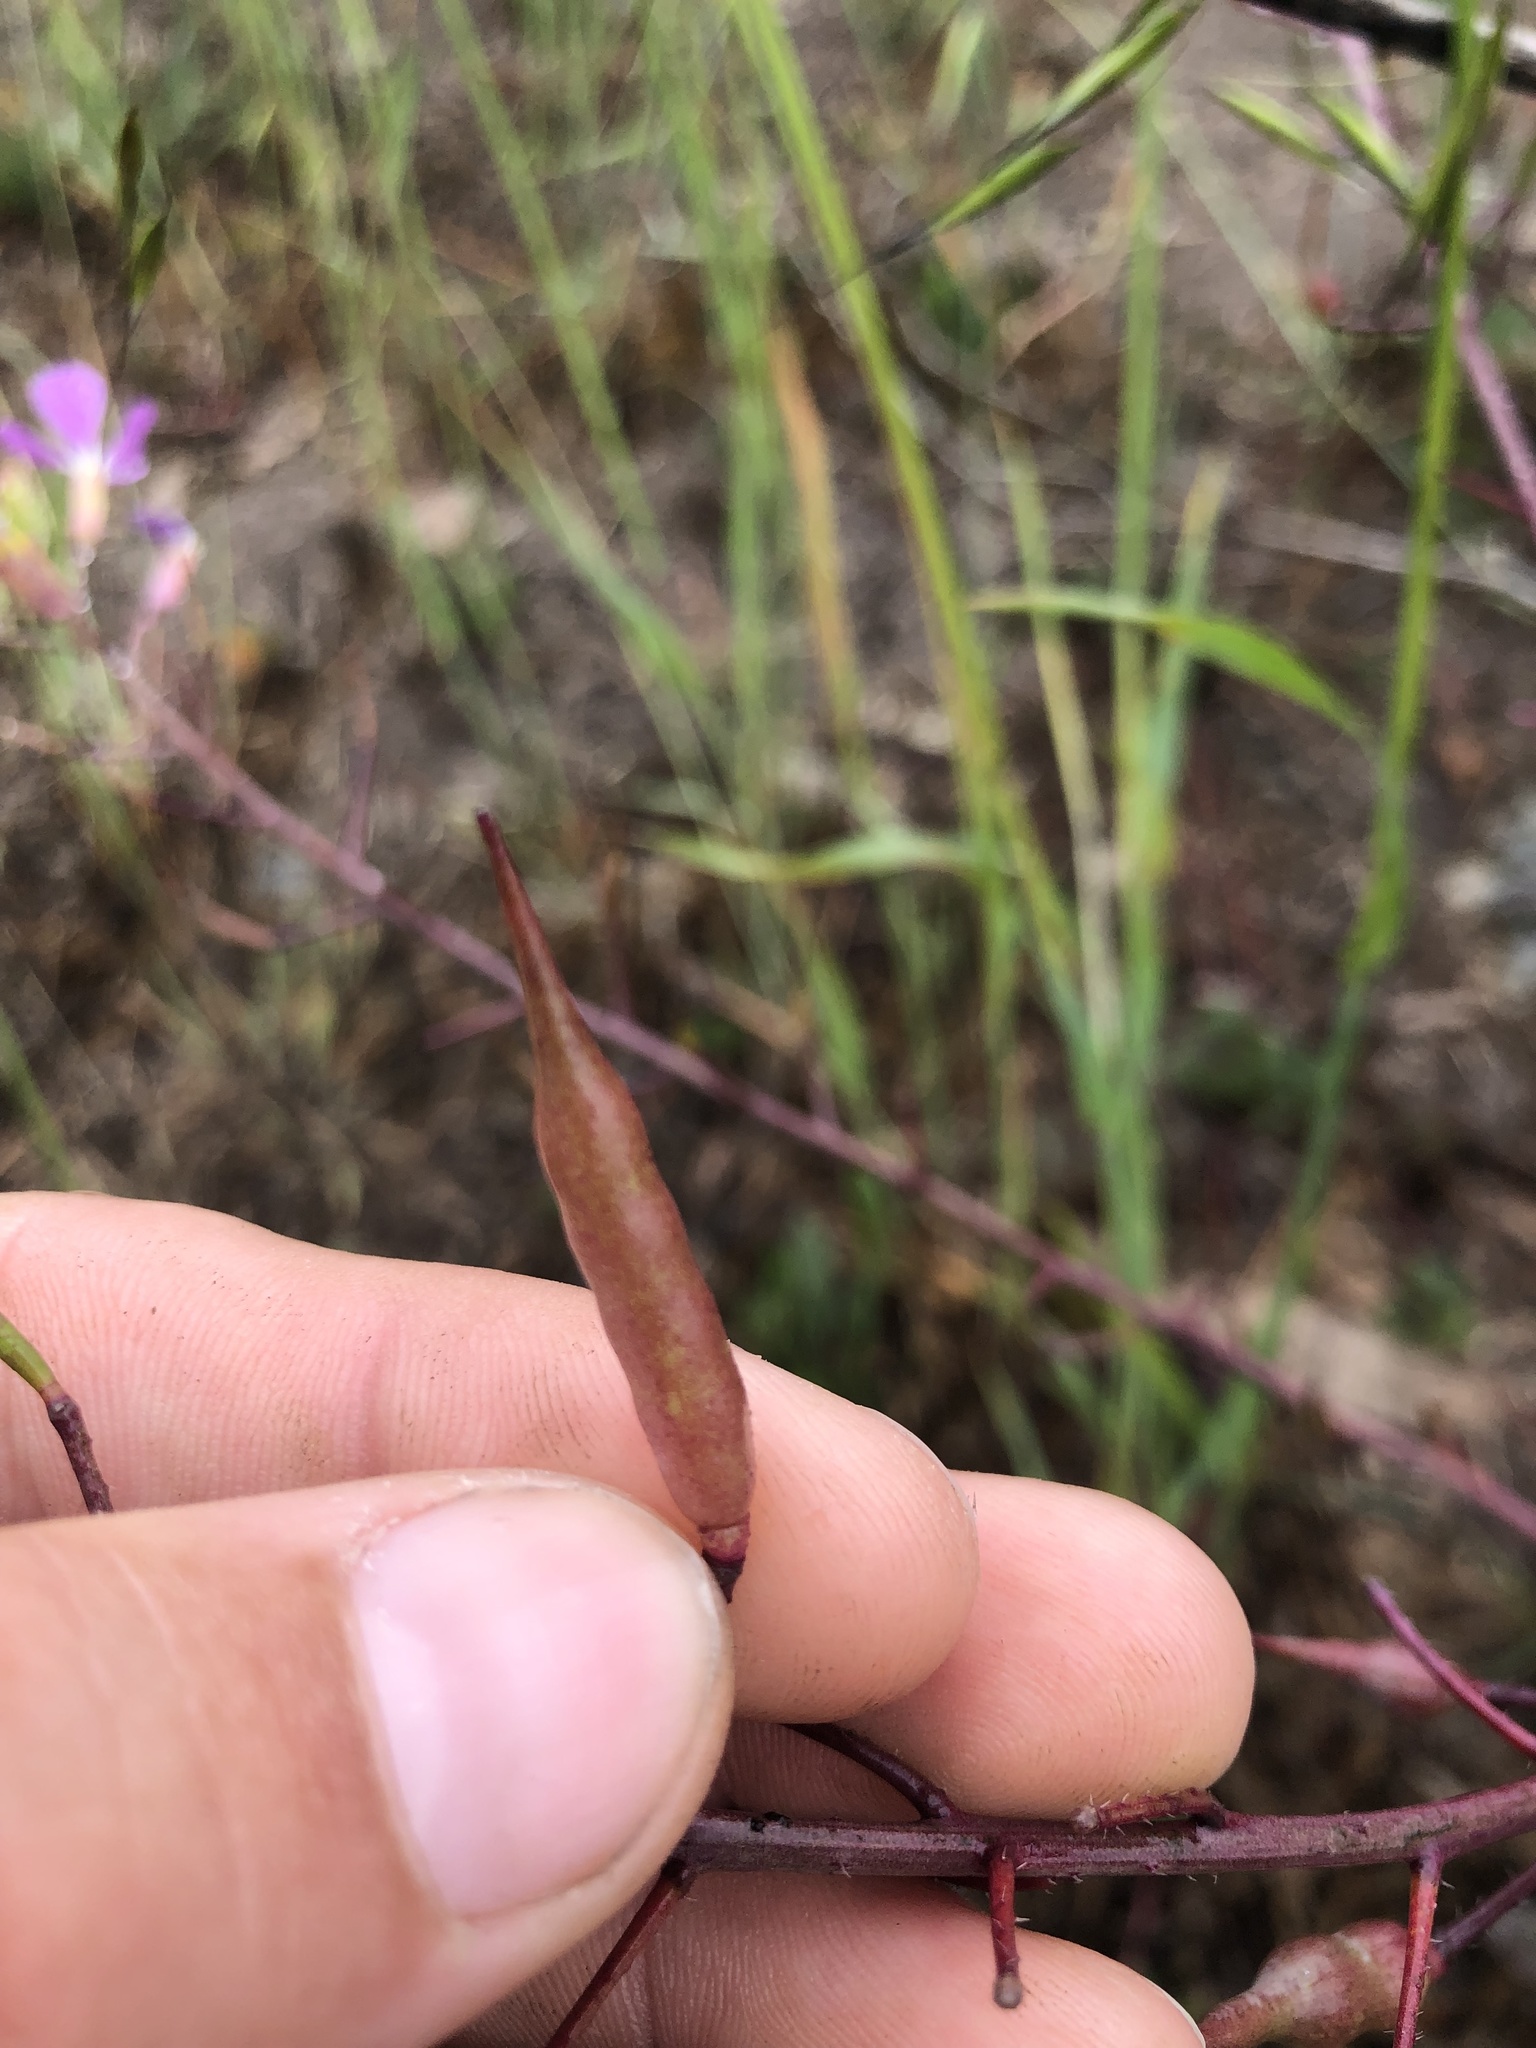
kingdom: Plantae
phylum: Tracheophyta
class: Magnoliopsida
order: Brassicales
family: Brassicaceae
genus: Raphanus
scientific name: Raphanus sativus
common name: Cultivated radish
